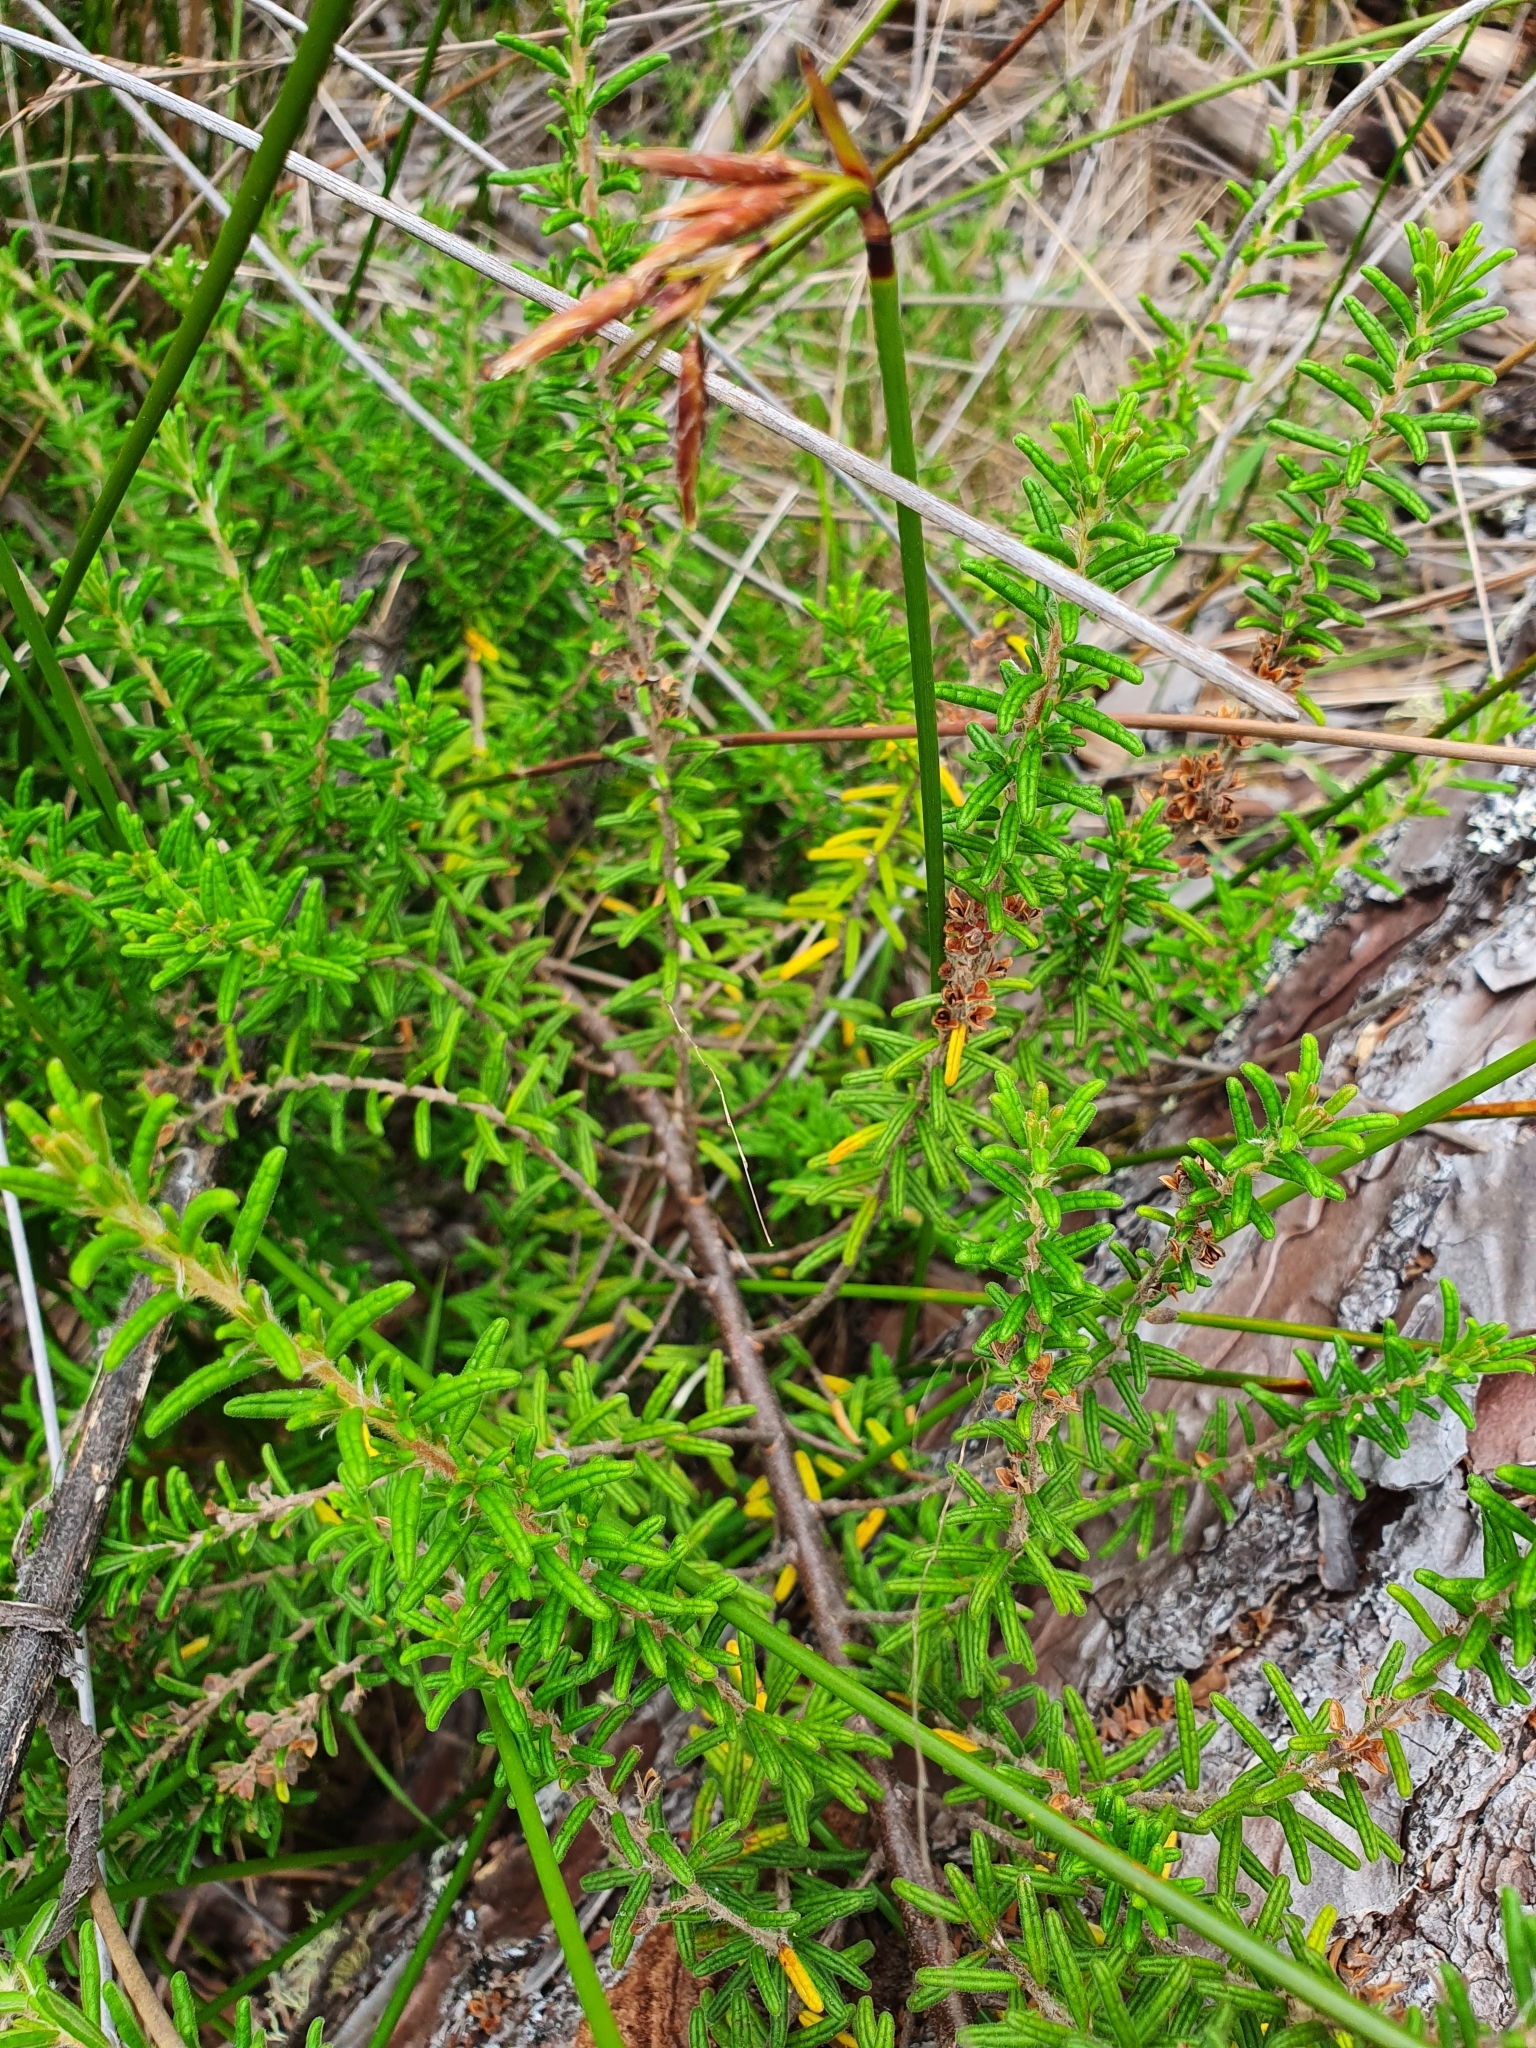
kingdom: Plantae
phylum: Tracheophyta
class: Magnoliopsida
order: Rosales
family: Rhamnaceae
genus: Pomaderris
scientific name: Pomaderris amoena
